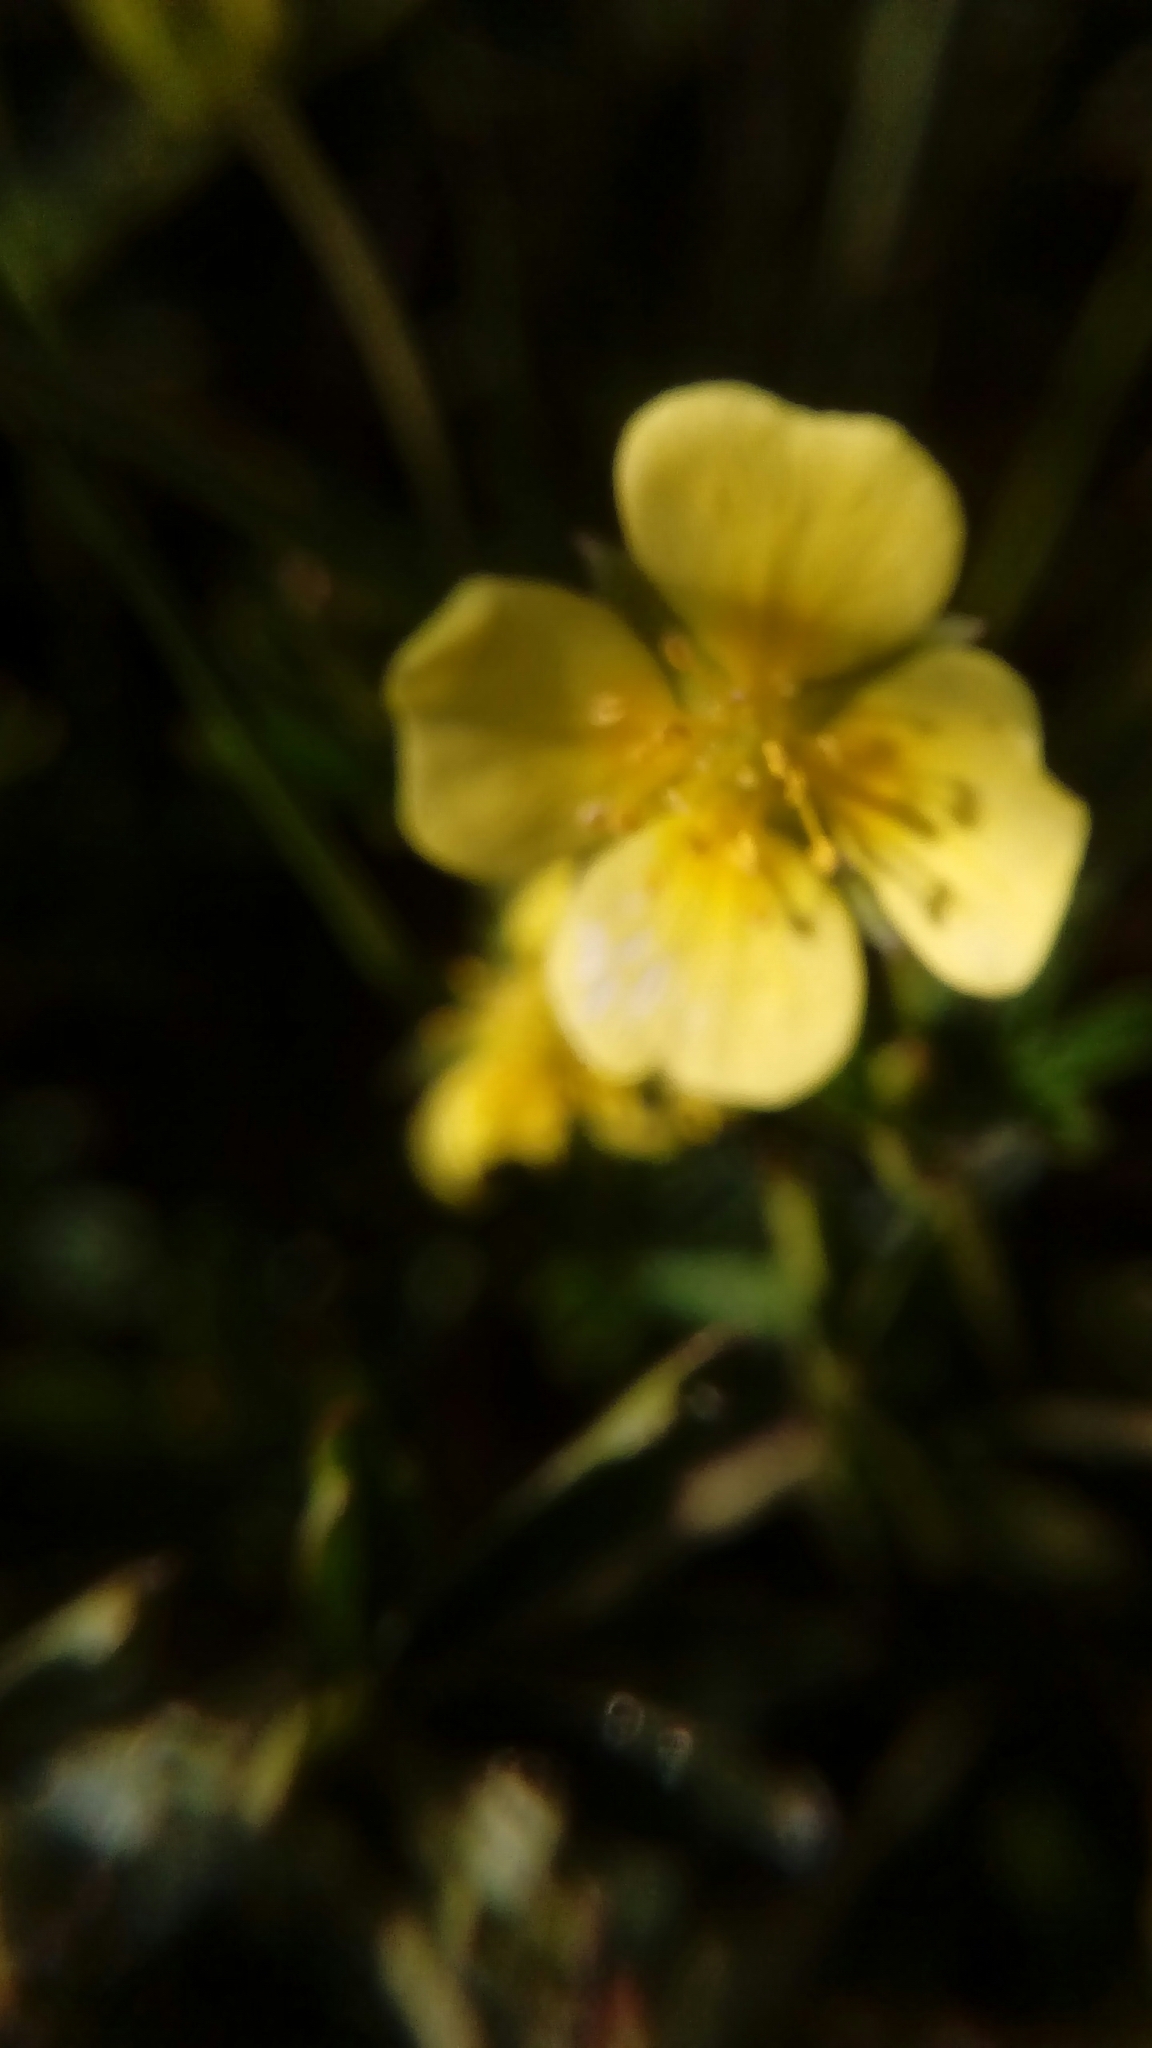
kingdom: Plantae
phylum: Tracheophyta
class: Magnoliopsida
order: Rosales
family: Rosaceae
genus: Potentilla
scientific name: Potentilla erecta
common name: Tormentil
